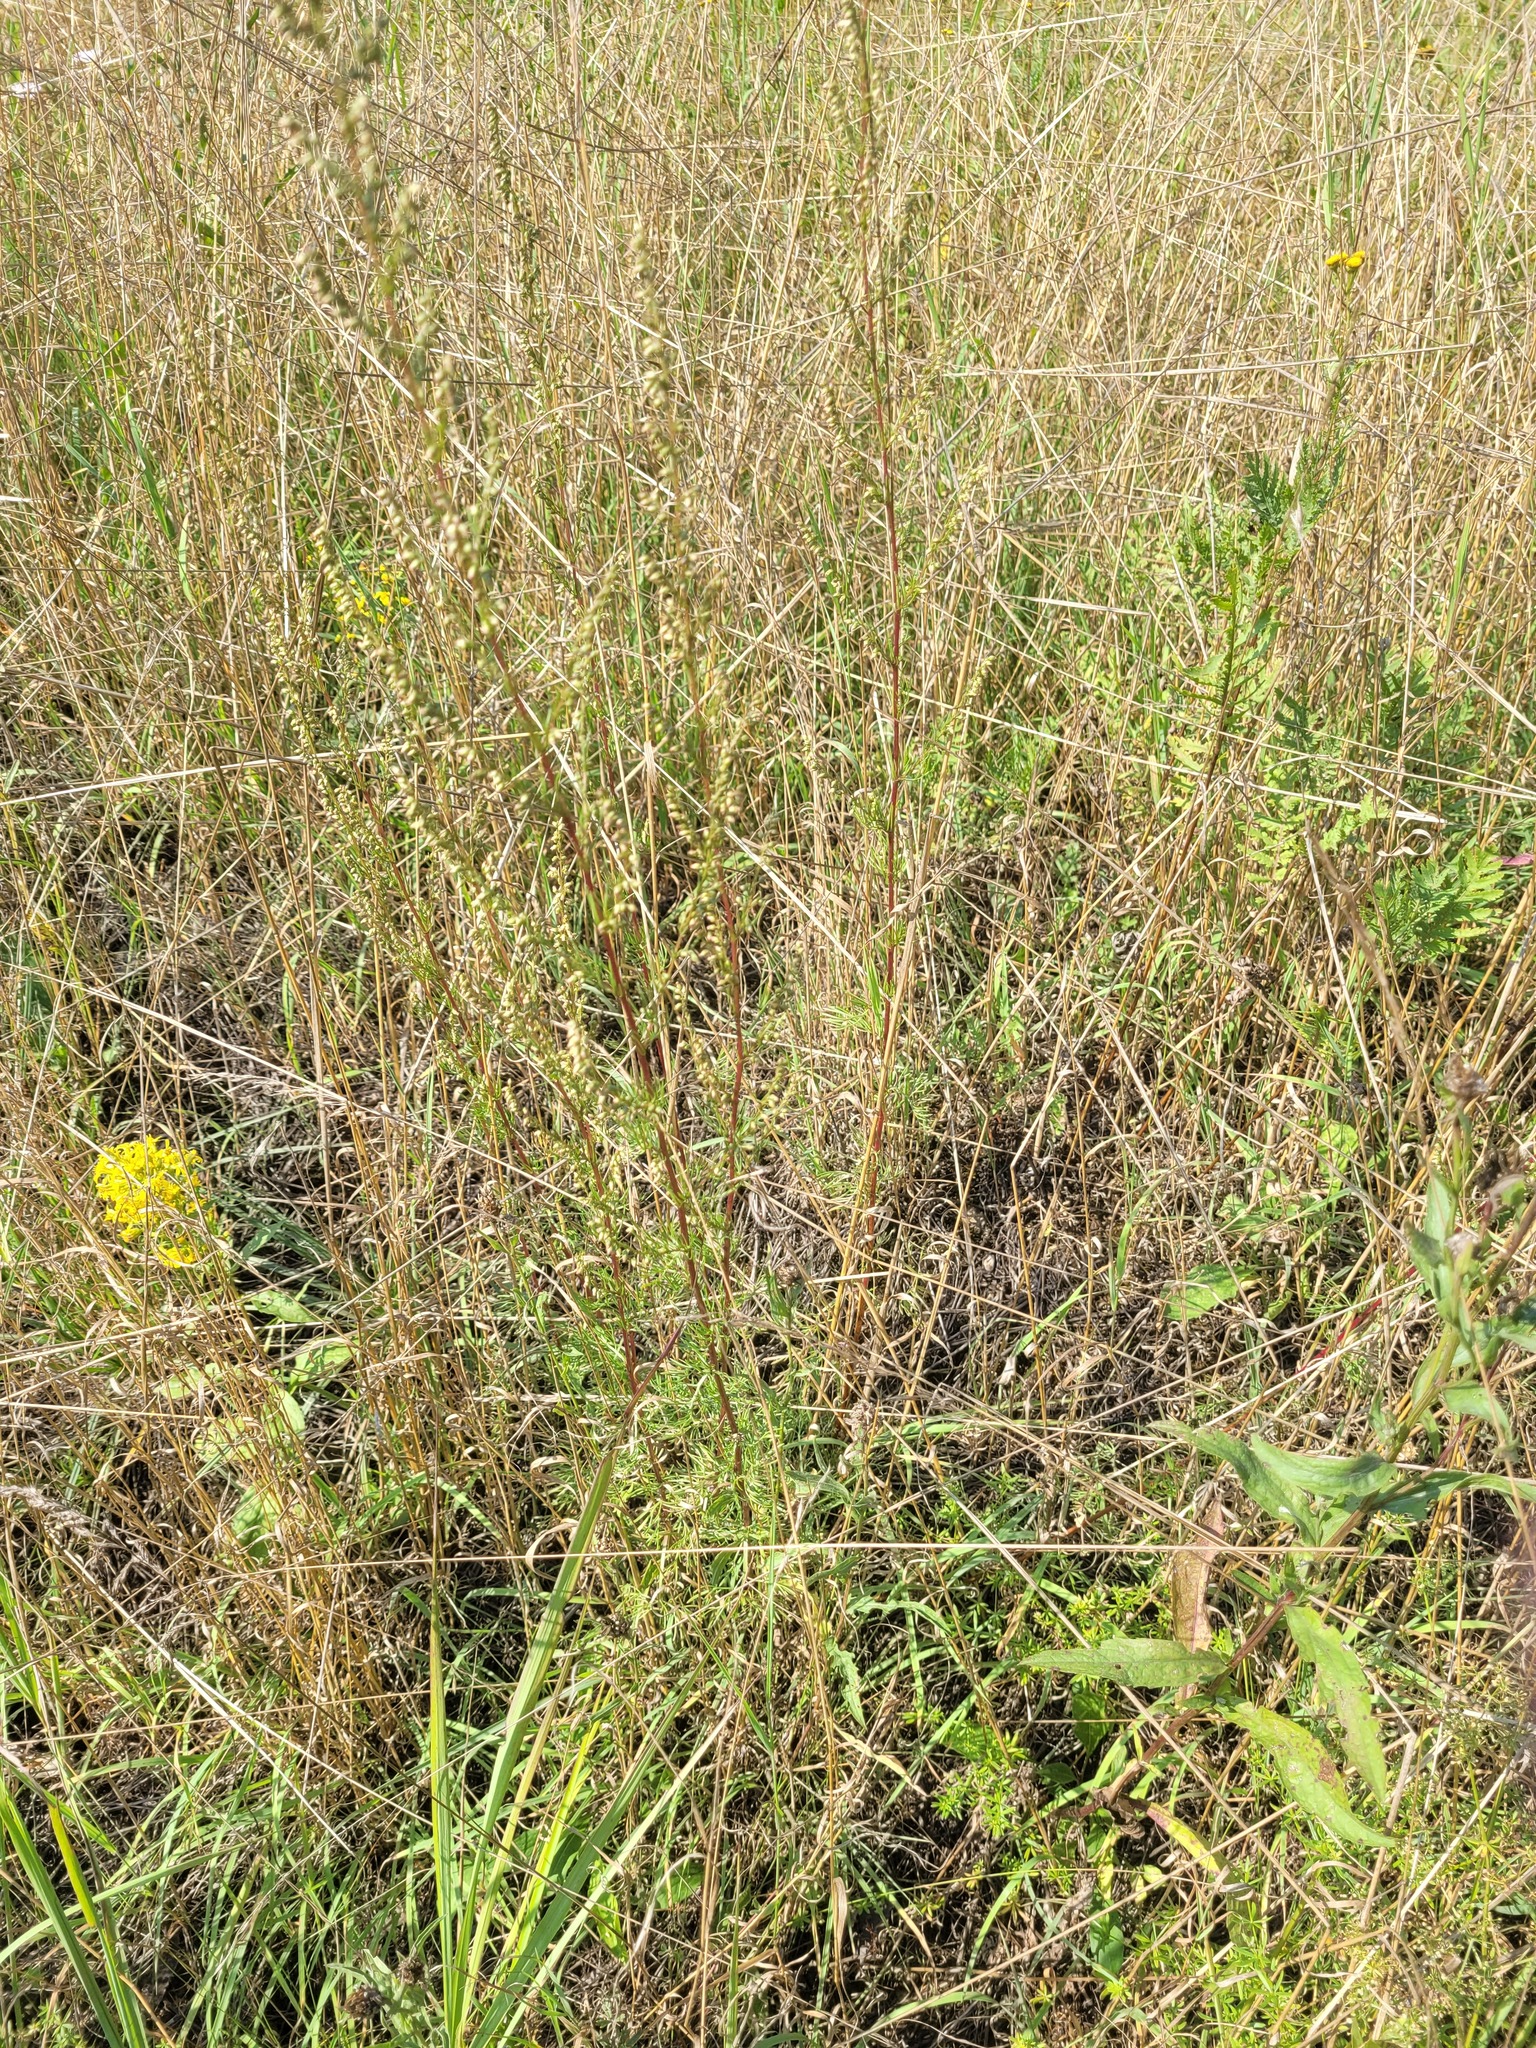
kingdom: Plantae
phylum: Tracheophyta
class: Magnoliopsida
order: Asterales
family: Asteraceae
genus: Artemisia
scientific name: Artemisia campestris
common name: Field wormwood
